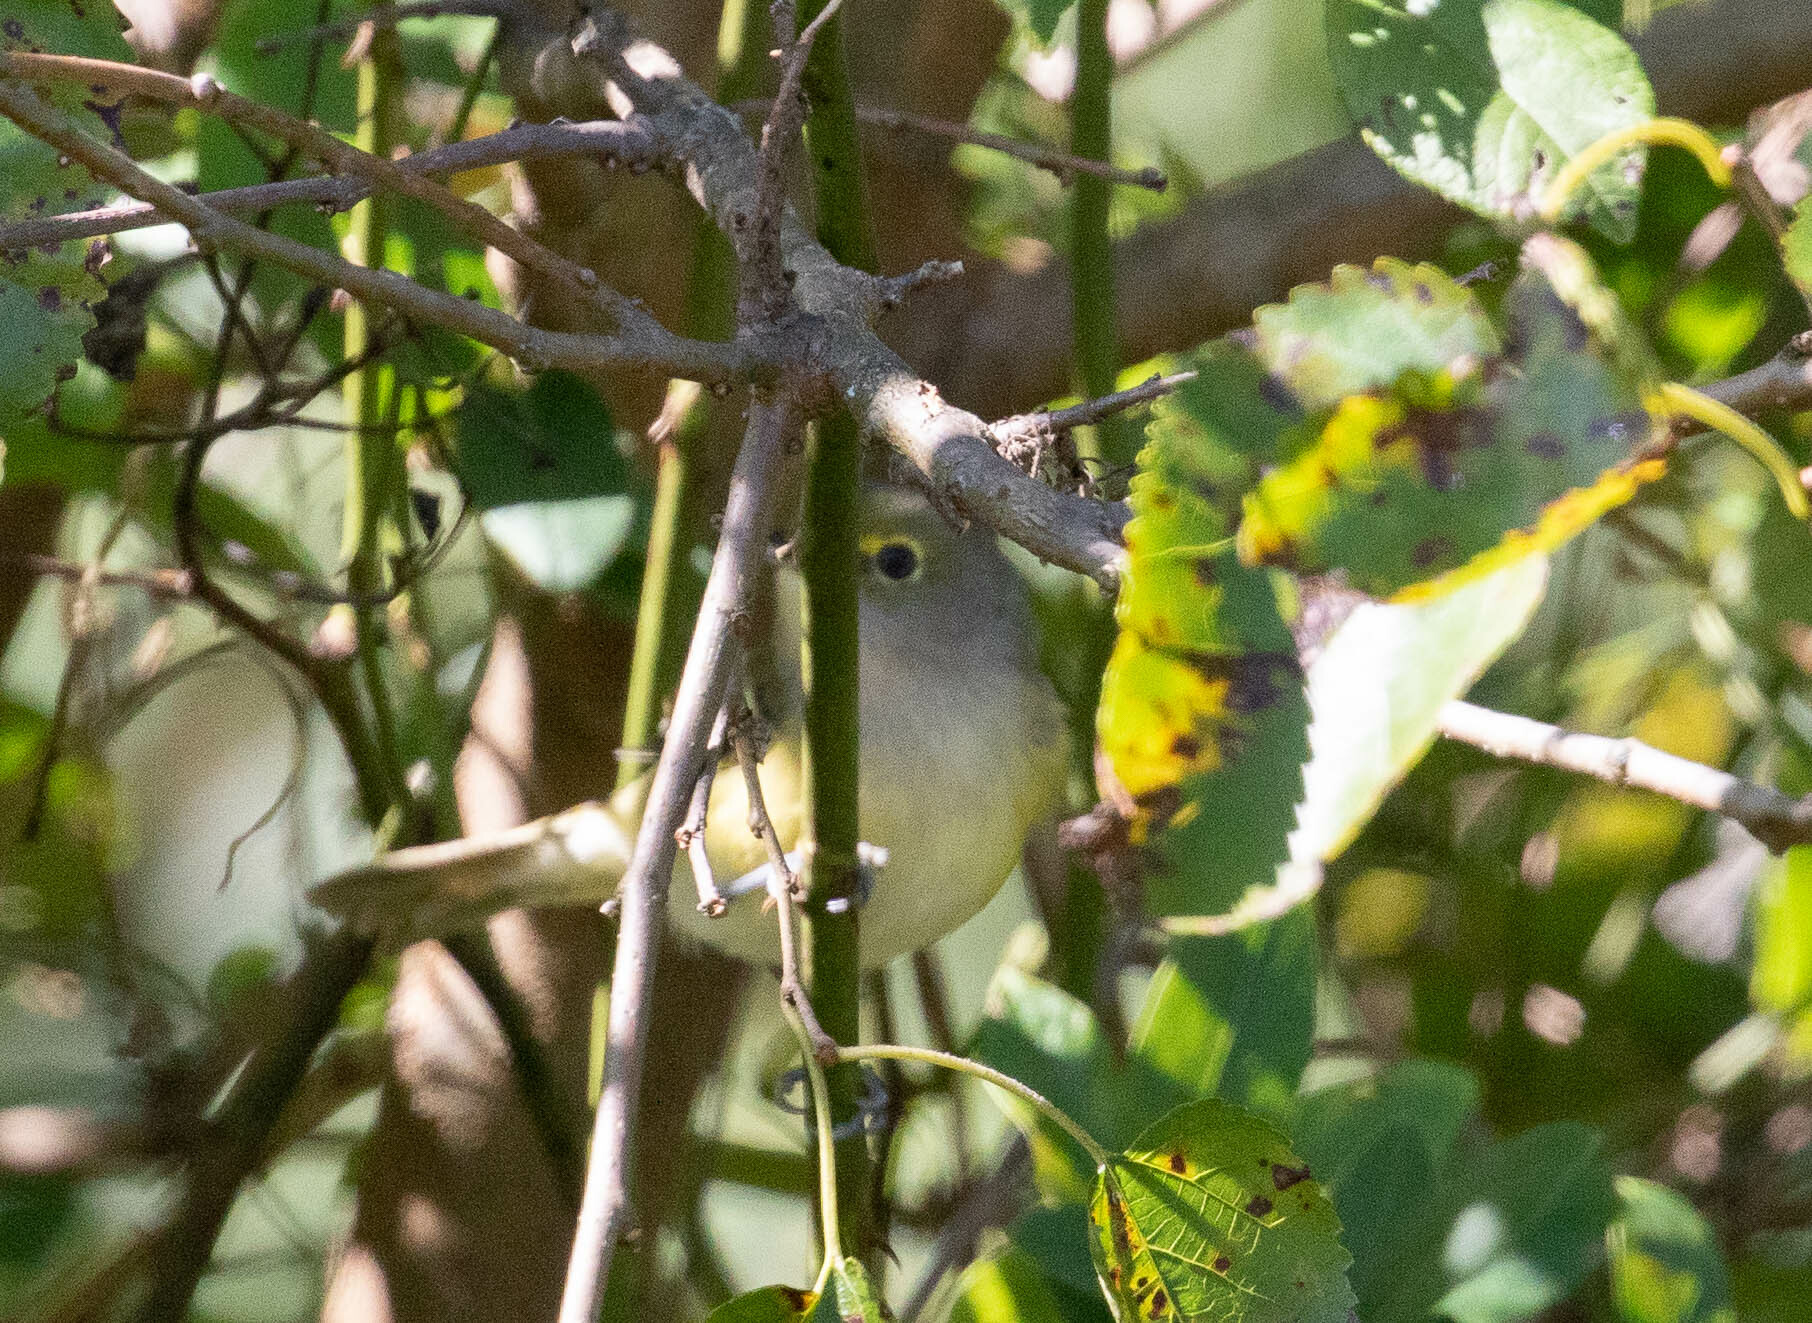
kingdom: Animalia
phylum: Chordata
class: Aves
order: Passeriformes
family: Vireonidae
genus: Vireo
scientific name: Vireo griseus
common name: White-eyed vireo
